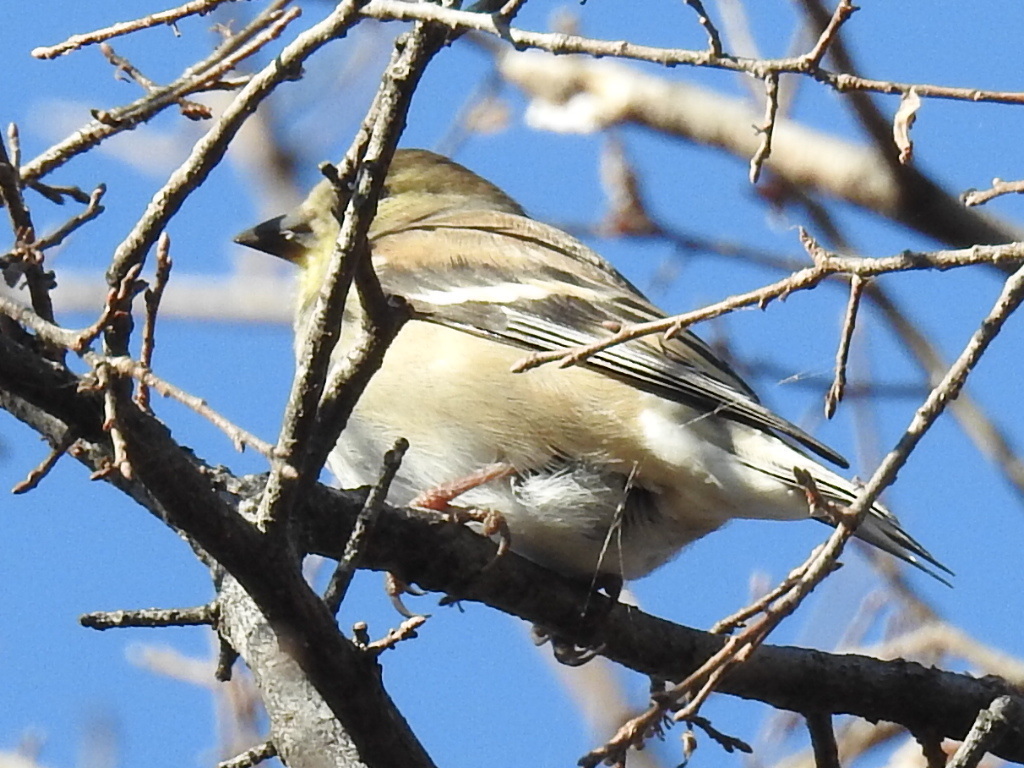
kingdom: Animalia
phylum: Chordata
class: Aves
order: Passeriformes
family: Fringillidae
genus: Spinus
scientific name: Spinus tristis
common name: American goldfinch
